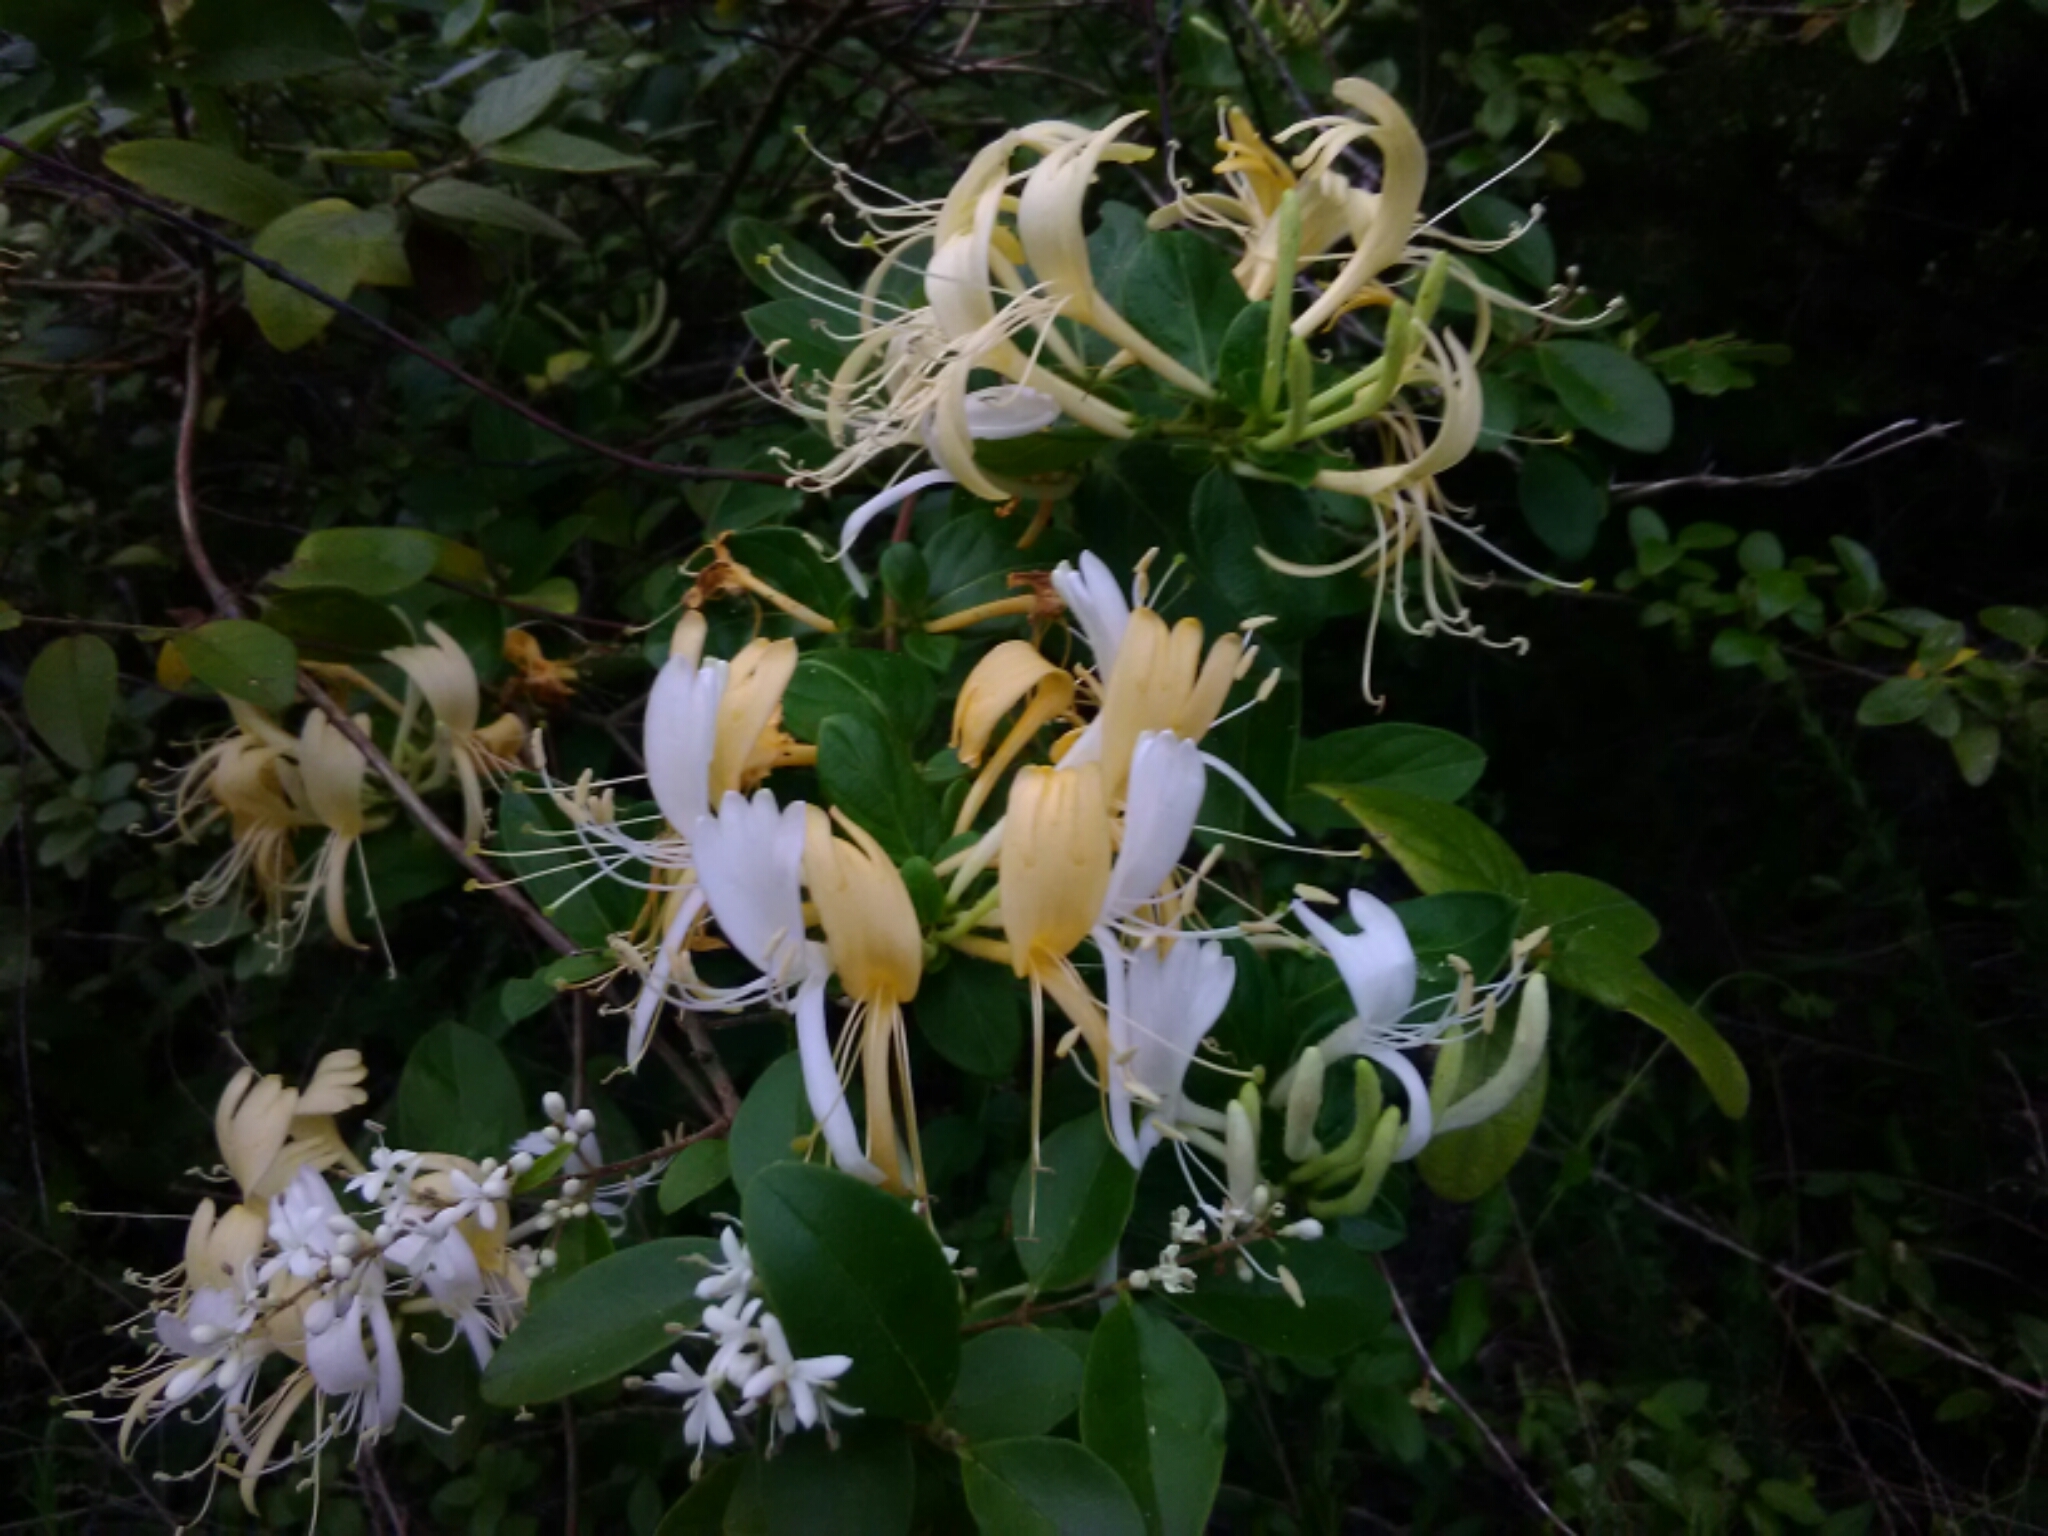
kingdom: Plantae
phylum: Tracheophyta
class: Magnoliopsida
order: Dipsacales
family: Caprifoliaceae
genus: Lonicera
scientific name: Lonicera japonica
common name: Japanese honeysuckle
